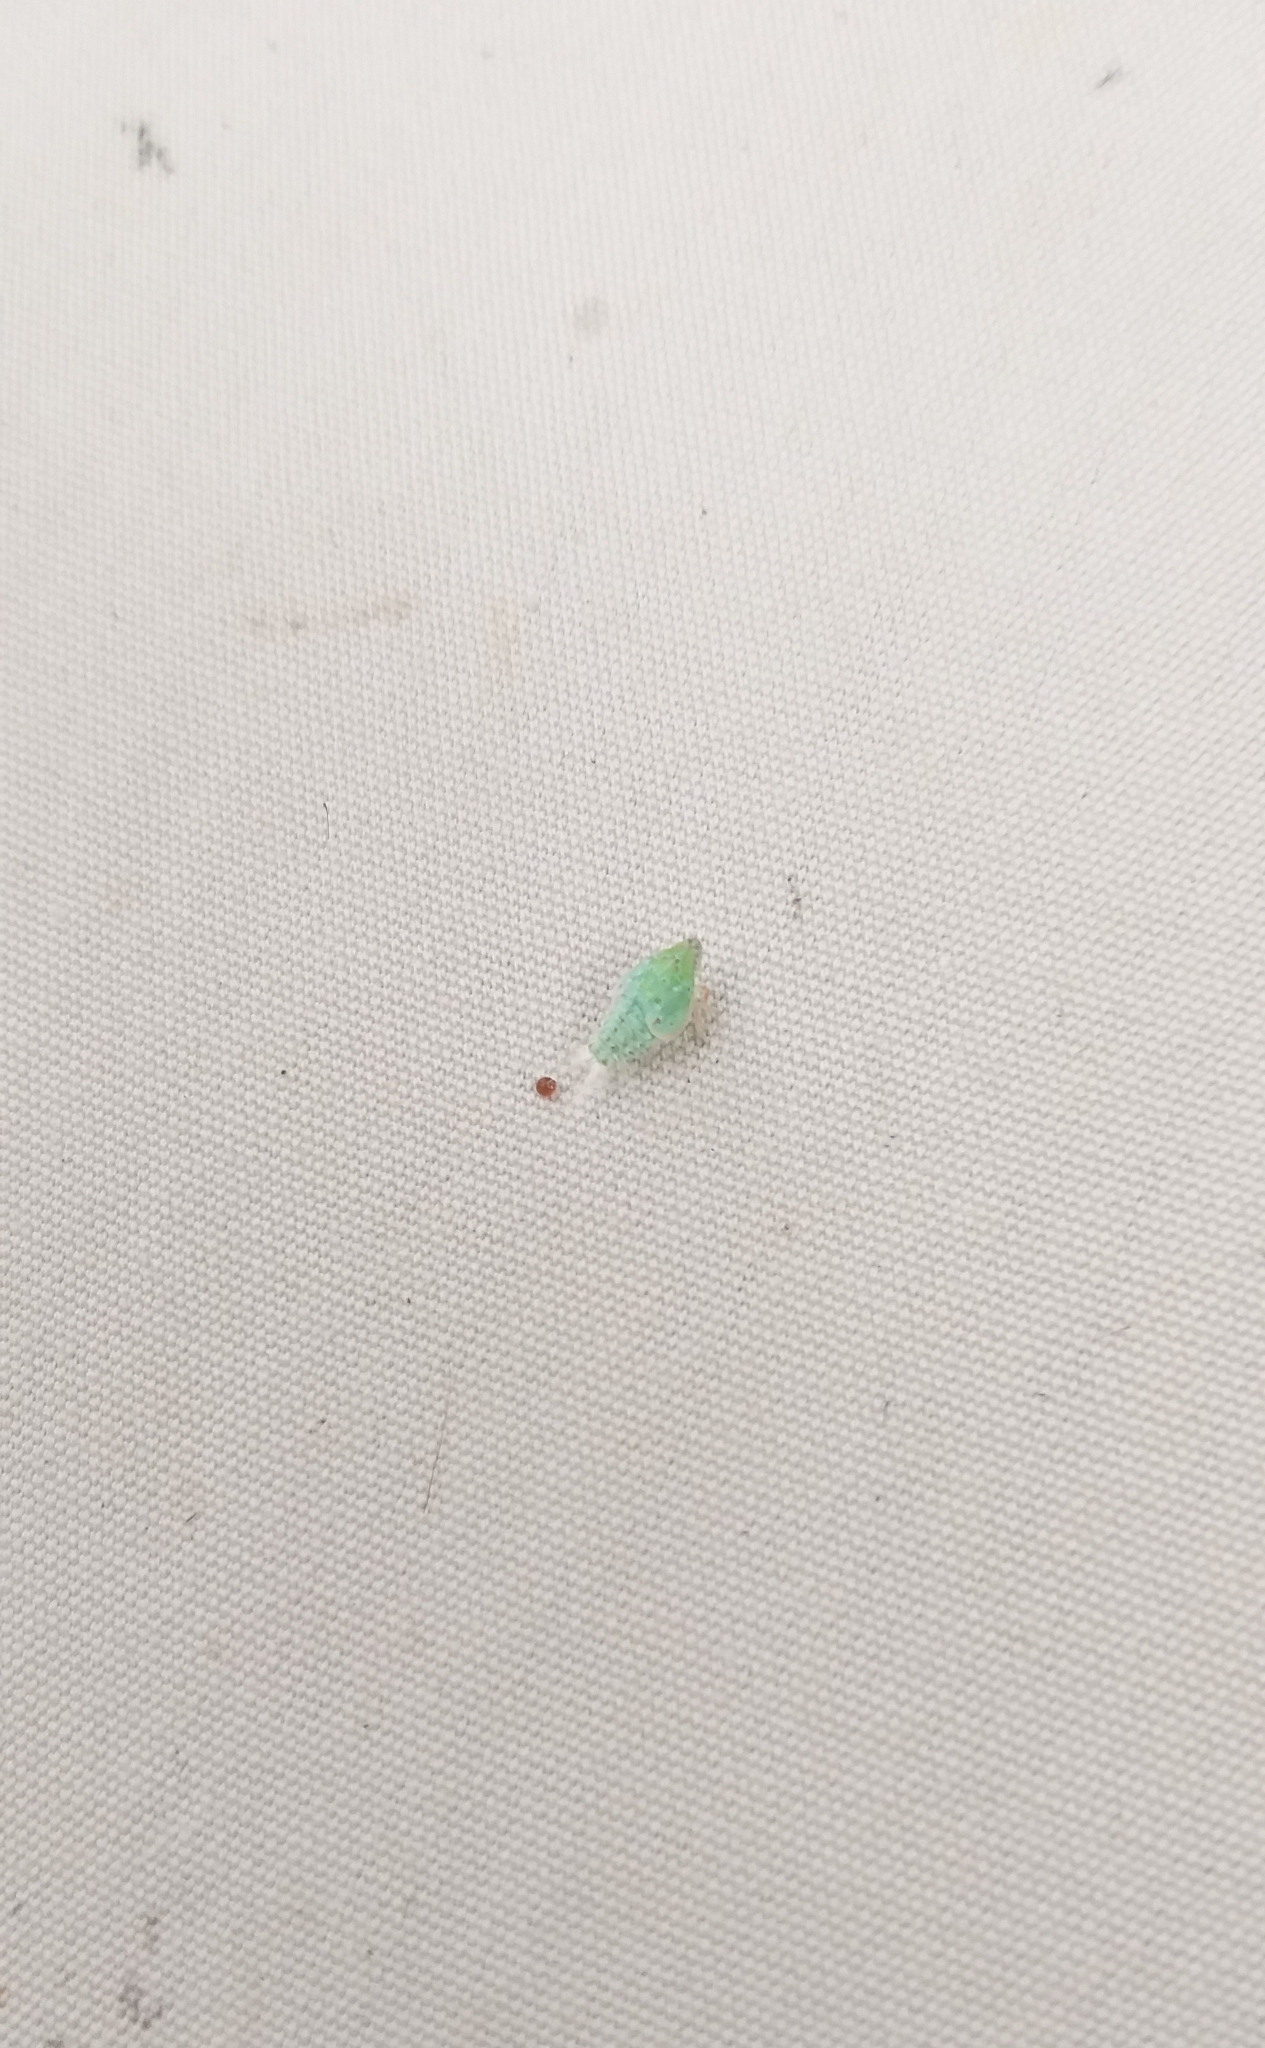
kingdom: Animalia
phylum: Arthropoda
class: Insecta
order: Hemiptera
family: Flatidae
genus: Siphanta
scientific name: Siphanta acuta
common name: Torpedo bug
